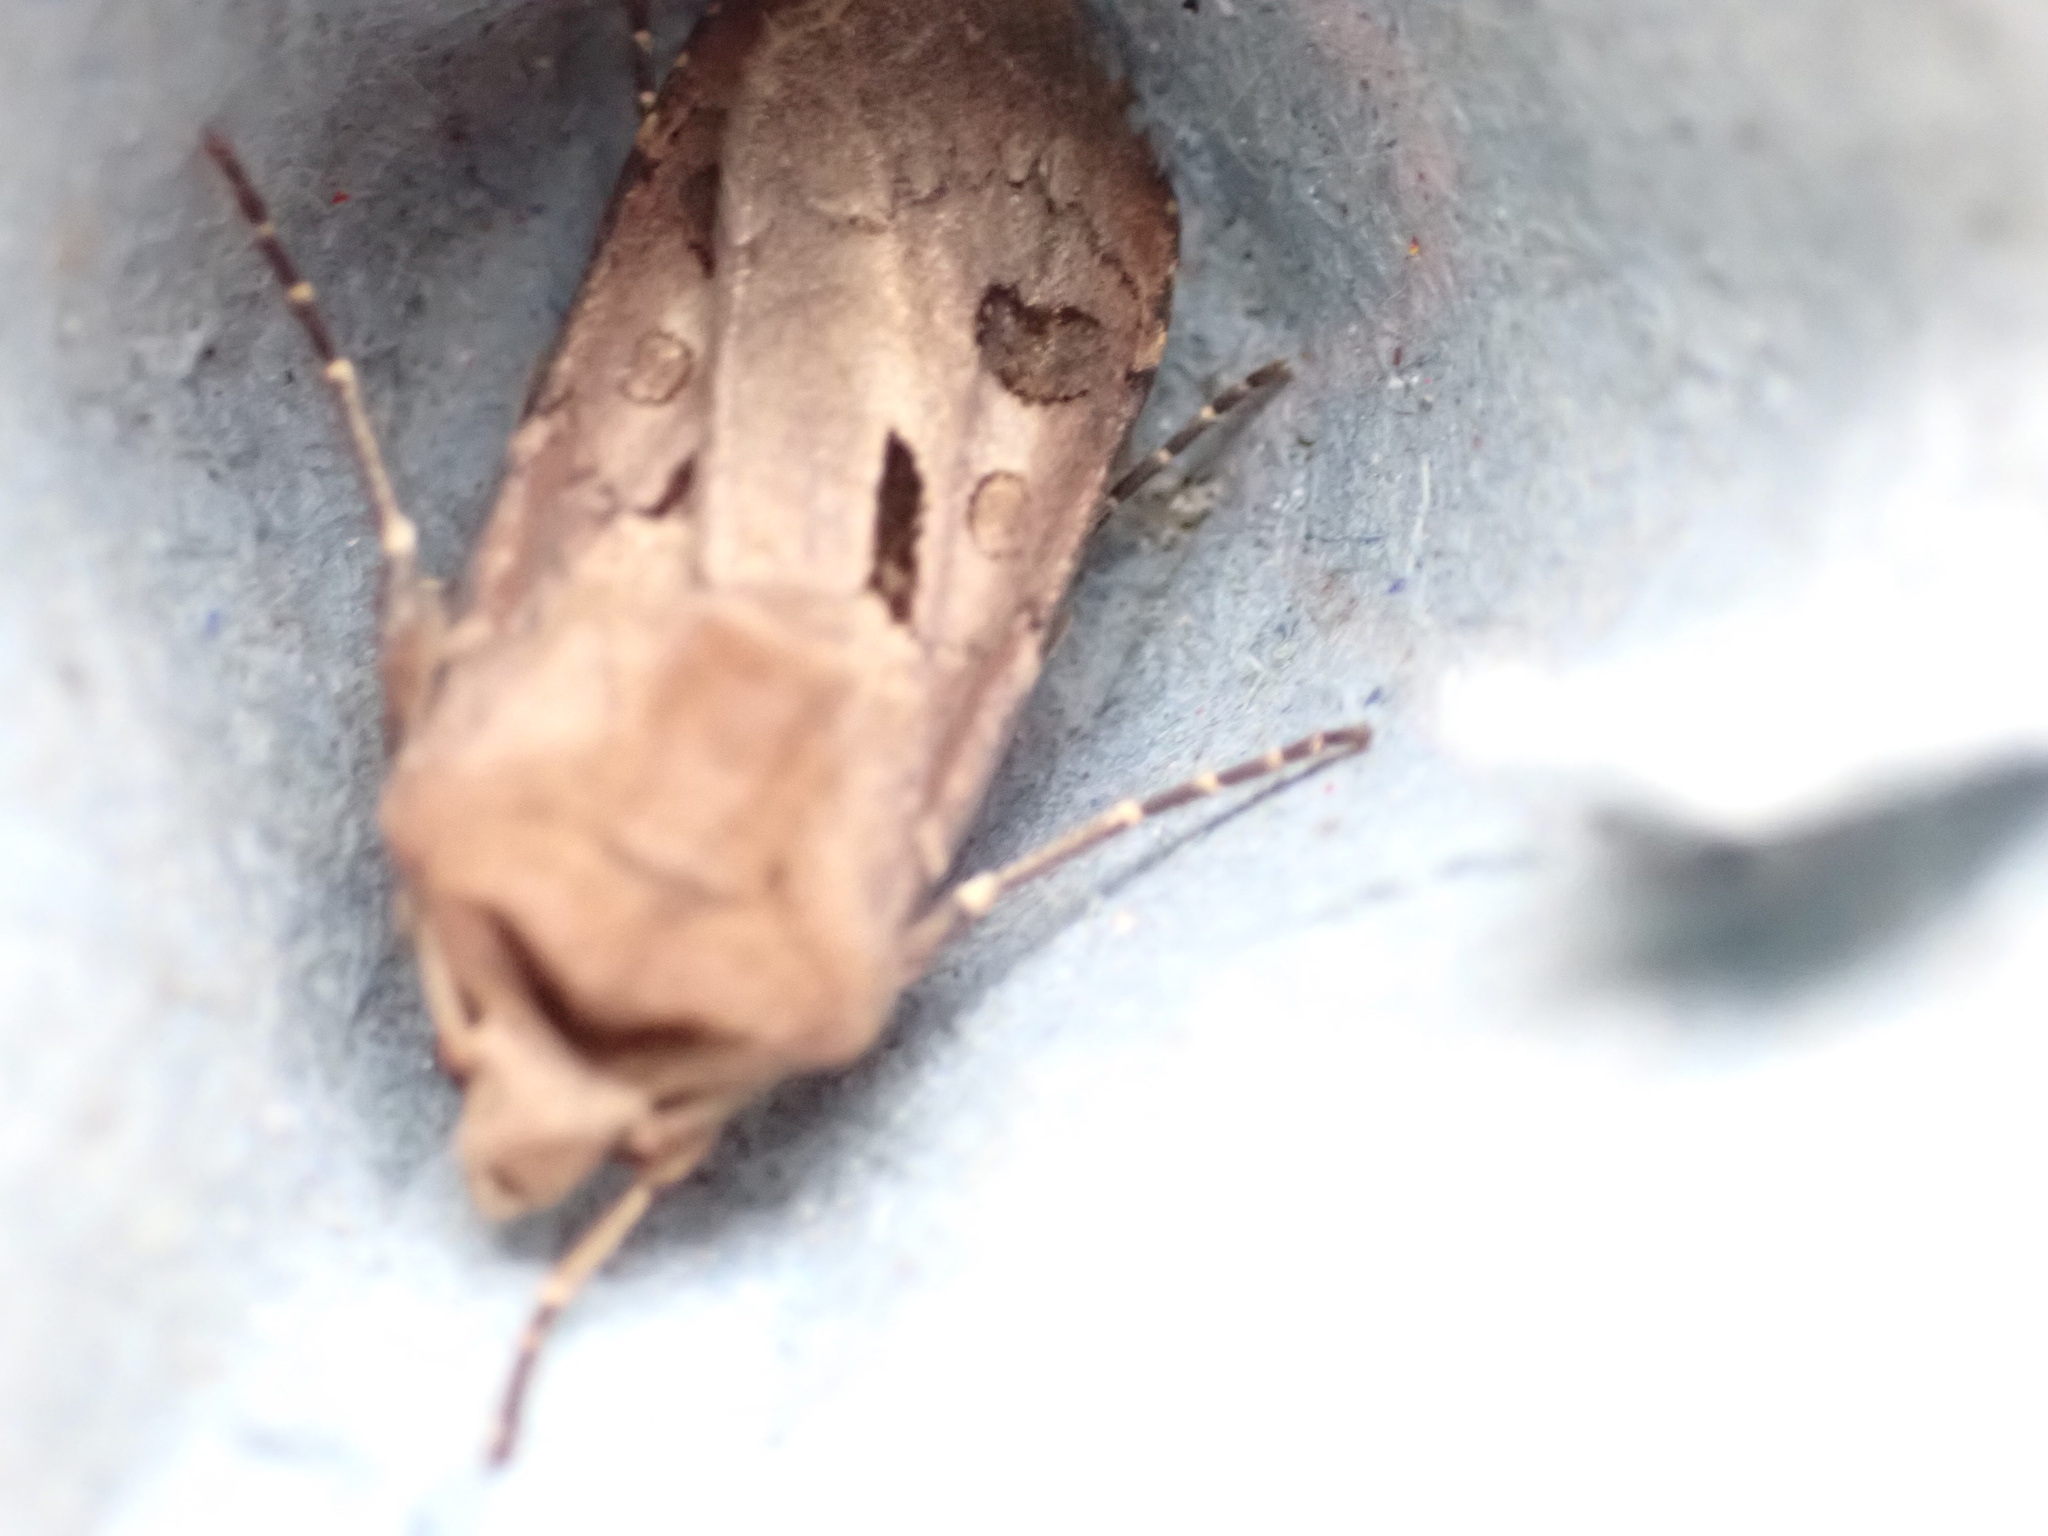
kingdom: Animalia
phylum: Arthropoda
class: Insecta
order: Lepidoptera
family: Noctuidae
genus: Agrotis
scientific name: Agrotis exclamationis
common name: Heart and dart
